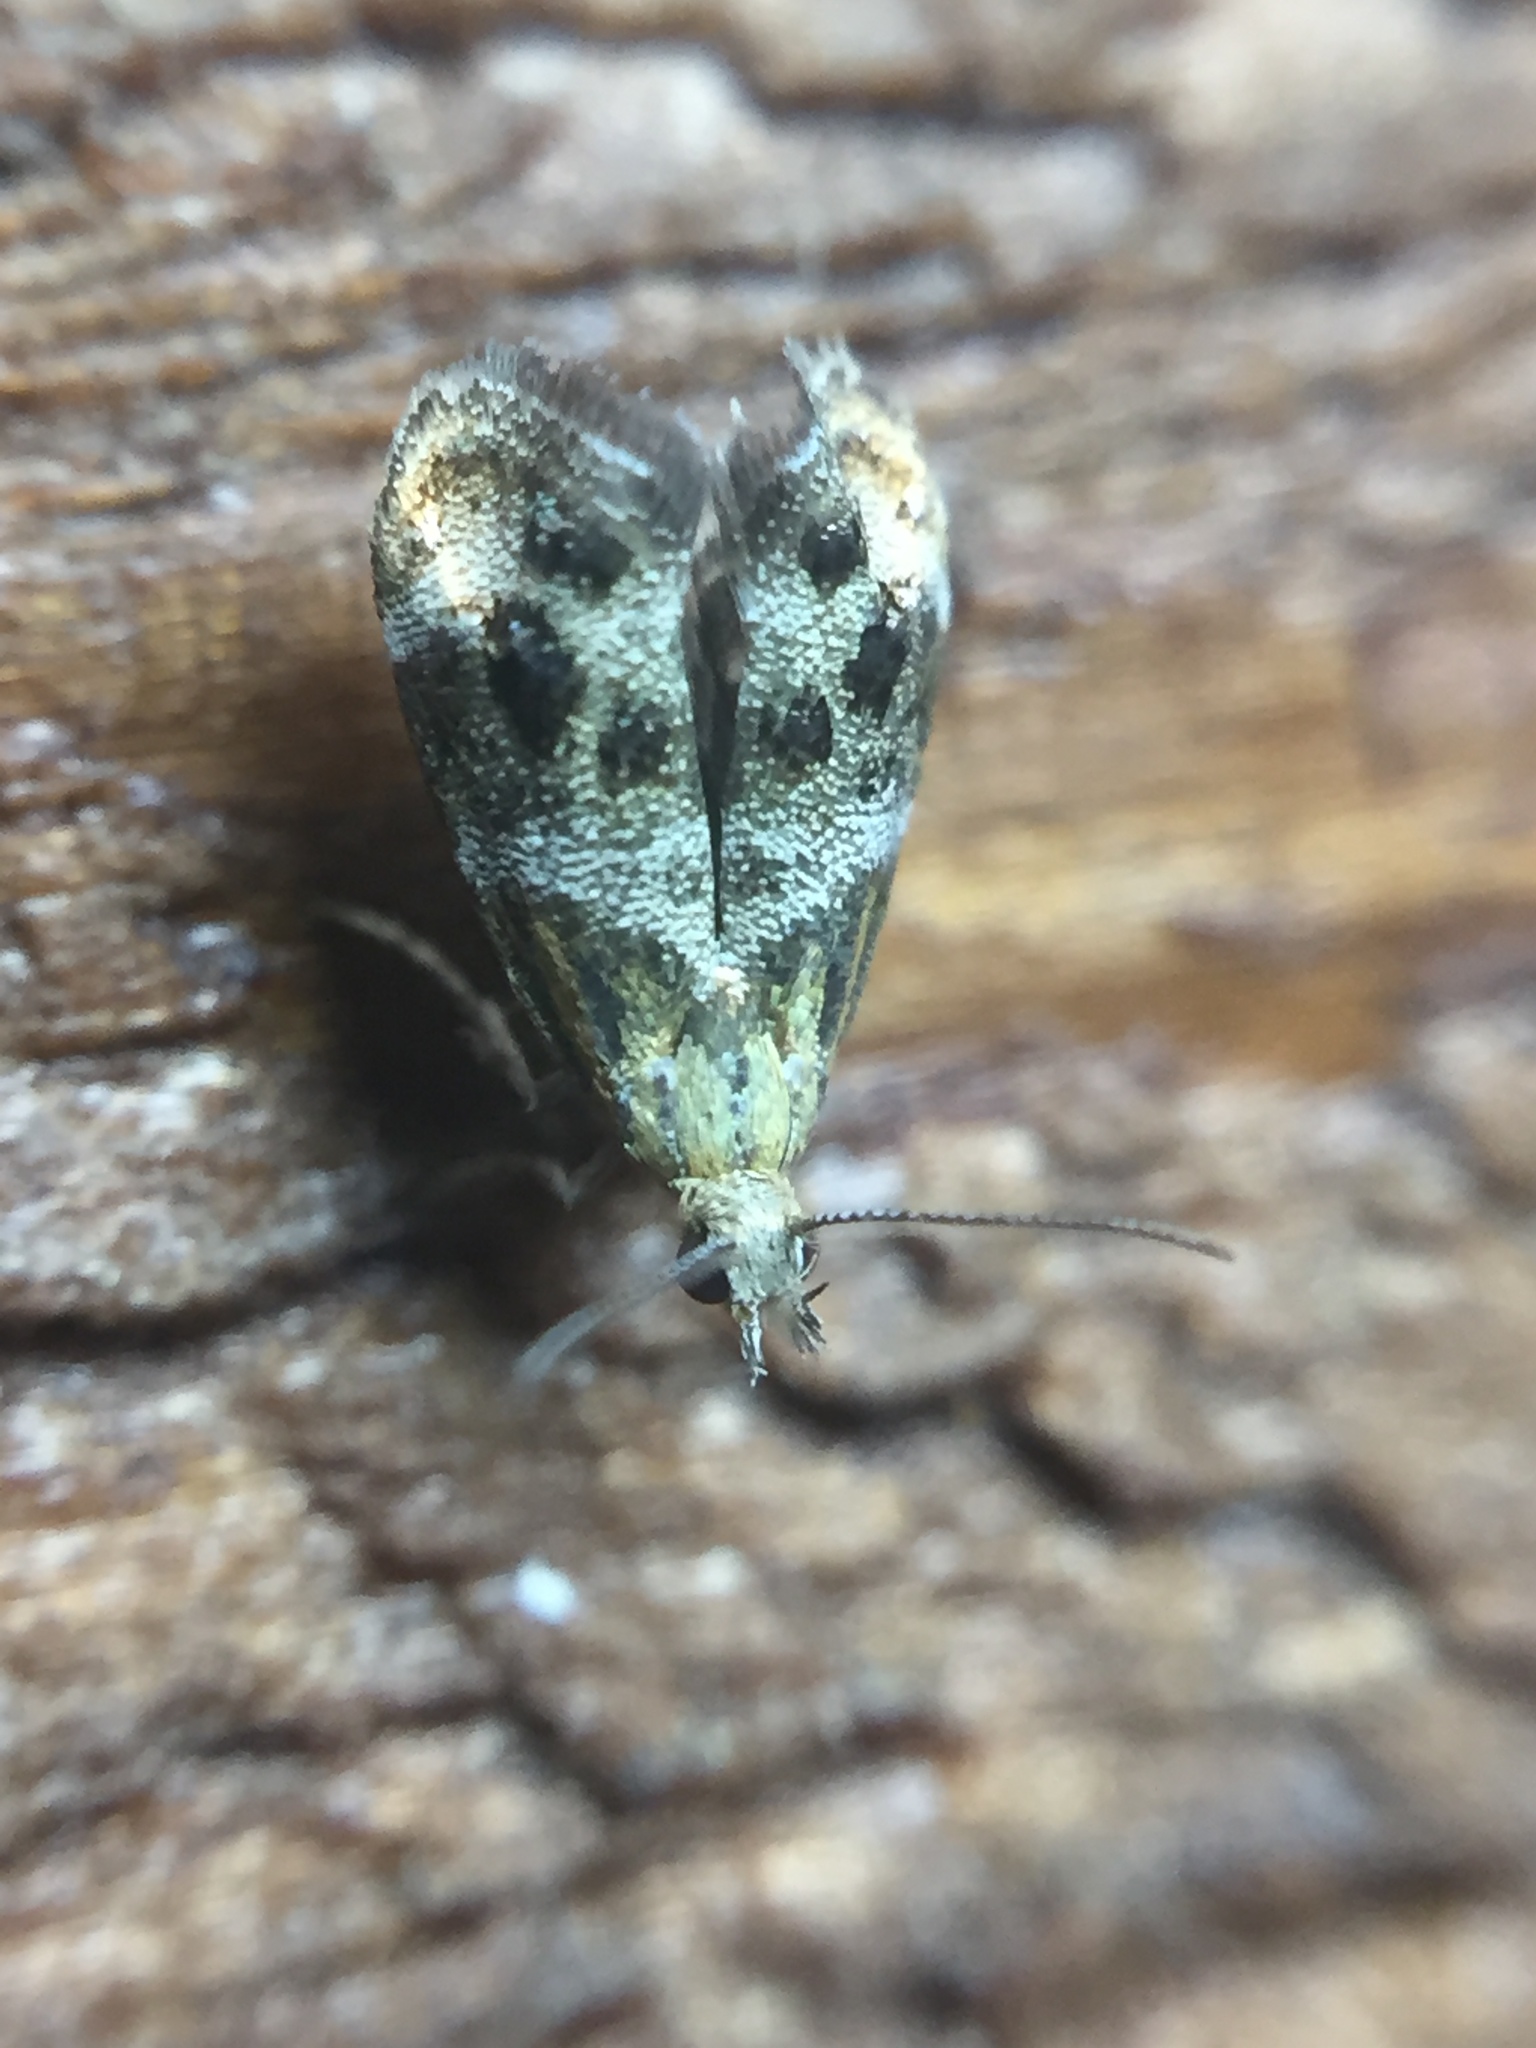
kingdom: Animalia
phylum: Arthropoda
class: Insecta
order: Lepidoptera
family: Choreutidae
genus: Tebenna
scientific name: Tebenna micalis
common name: Vagrant twitcher
